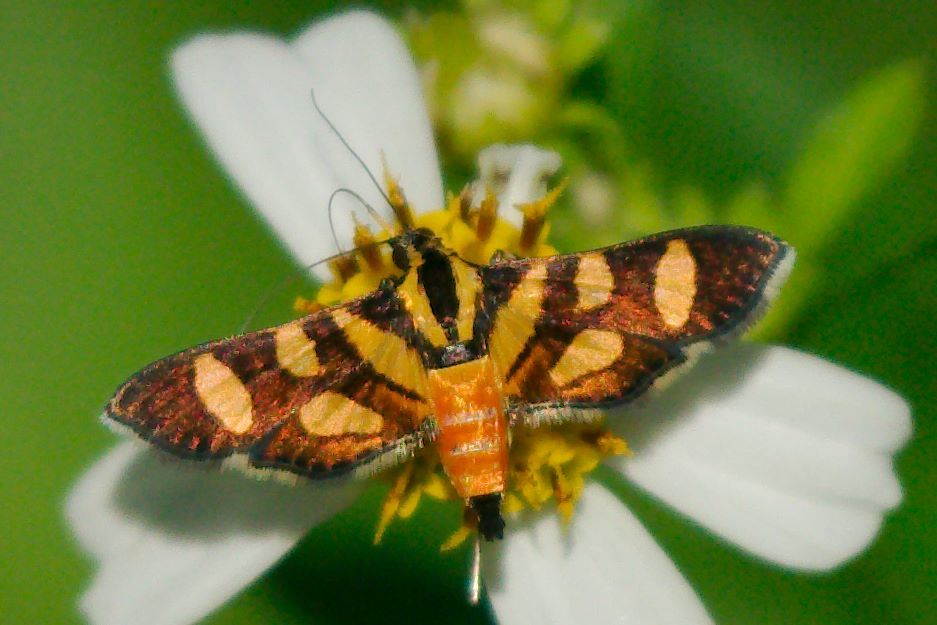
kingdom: Animalia
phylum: Arthropoda
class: Insecta
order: Lepidoptera
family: Crambidae
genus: Syngamia
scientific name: Syngamia florella
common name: Orange-spotted flower moth
